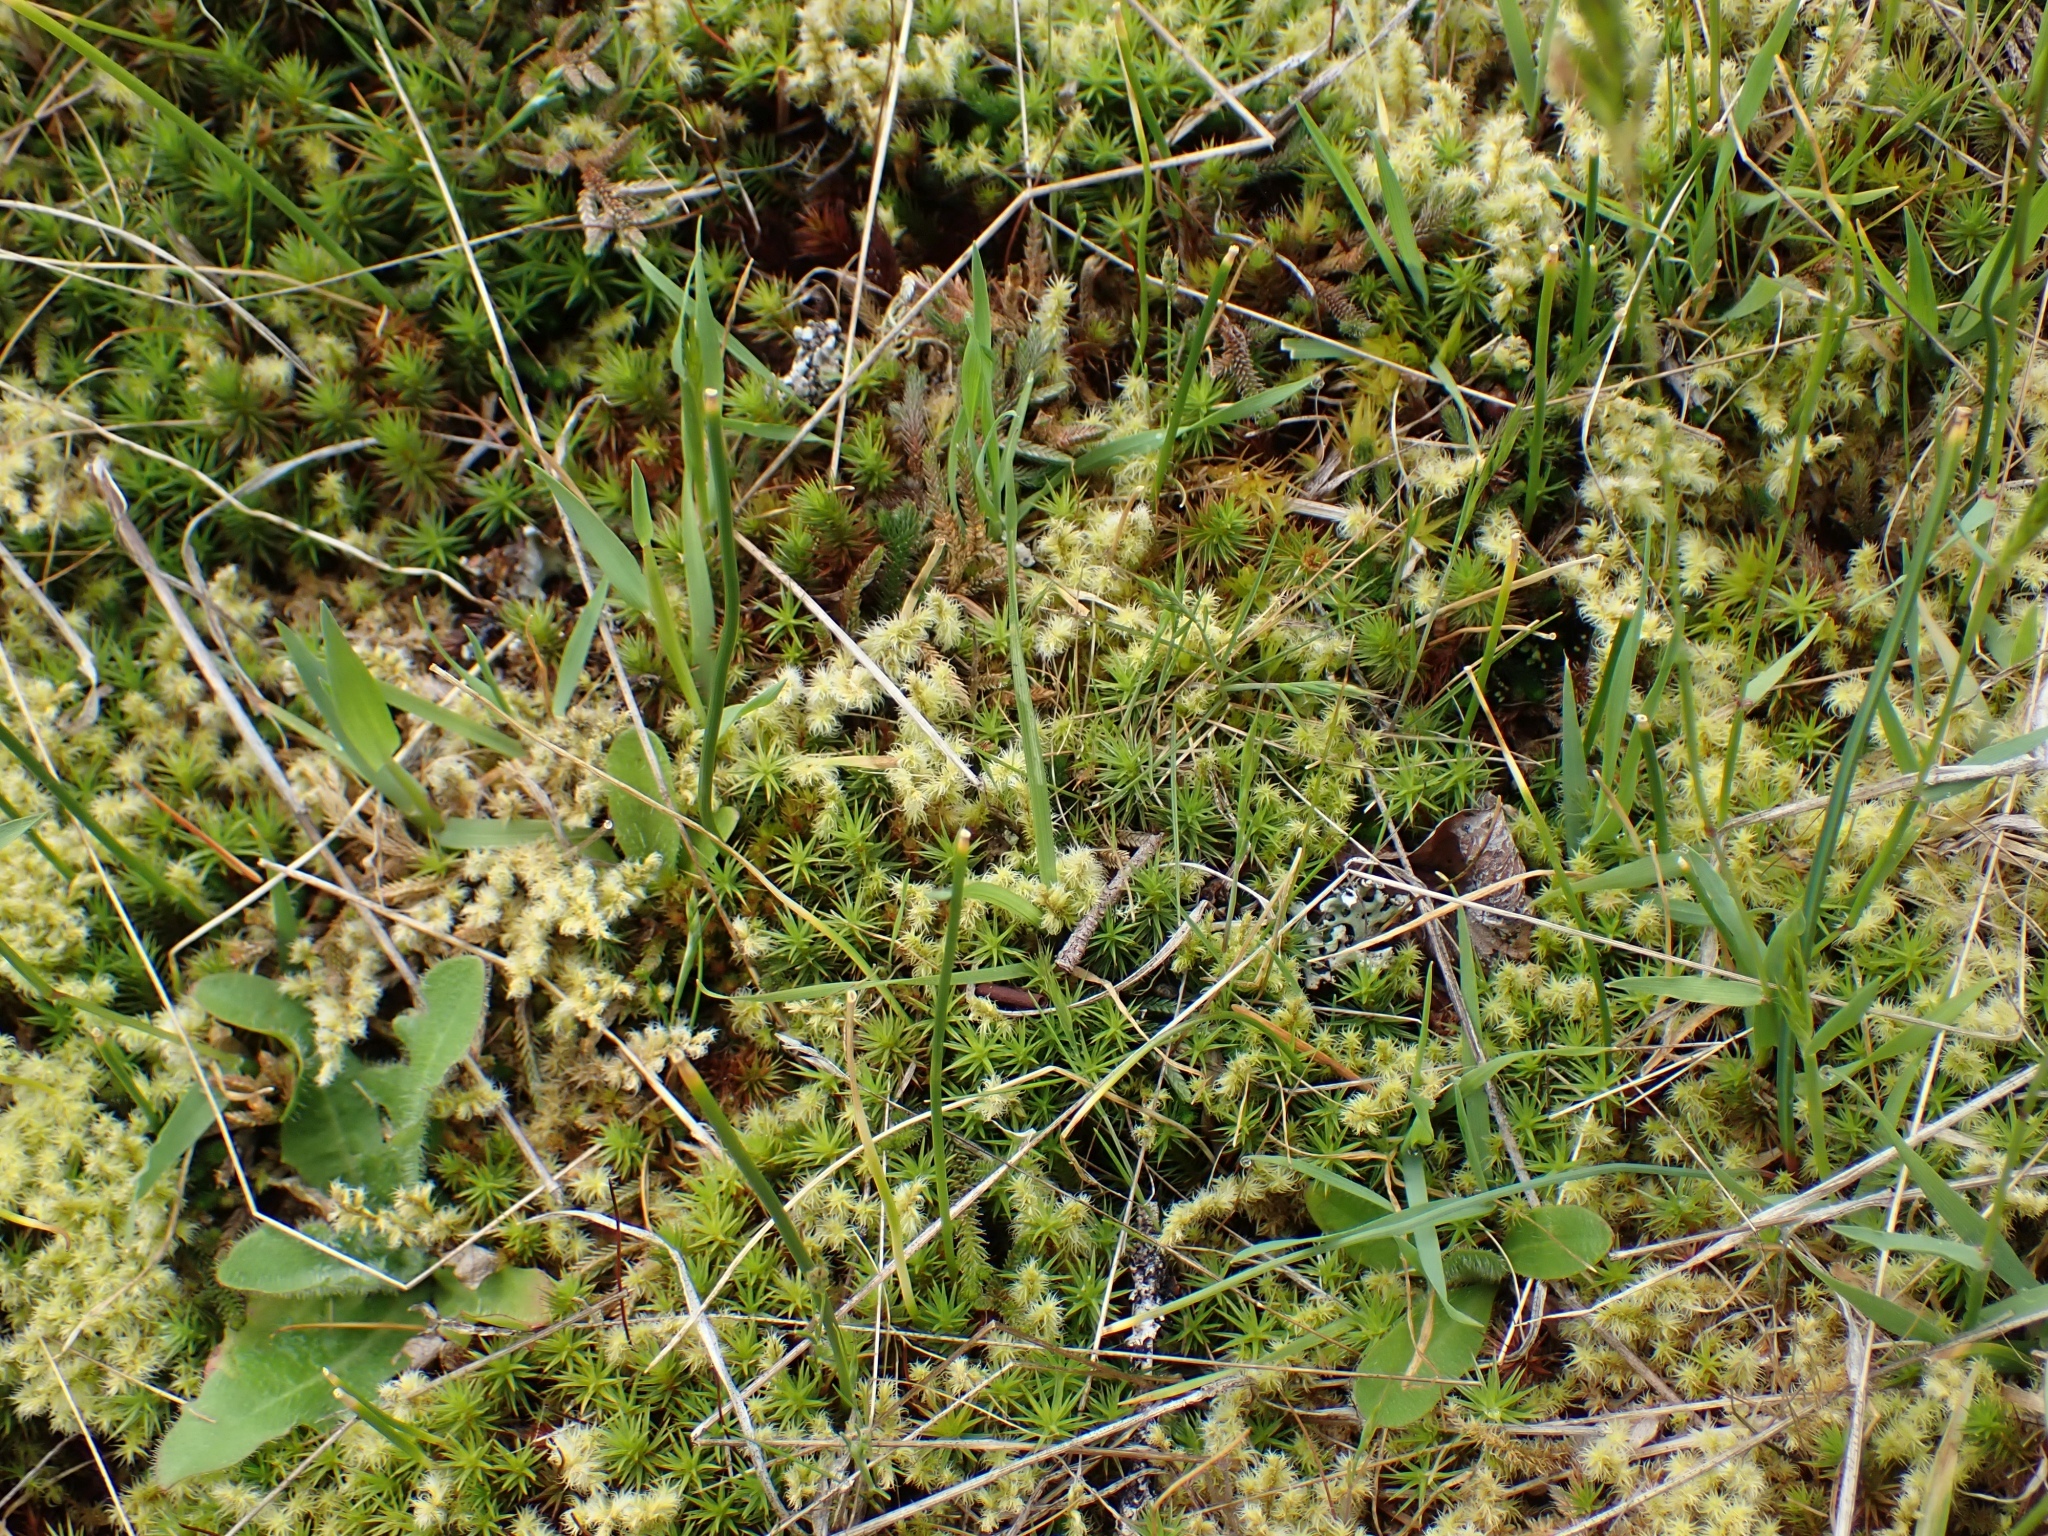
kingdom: Plantae
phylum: Bryophyta
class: Polytrichopsida
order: Polytrichales
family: Polytrichaceae
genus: Polytrichum
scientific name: Polytrichum juniperinum
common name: Juniper haircap moss
